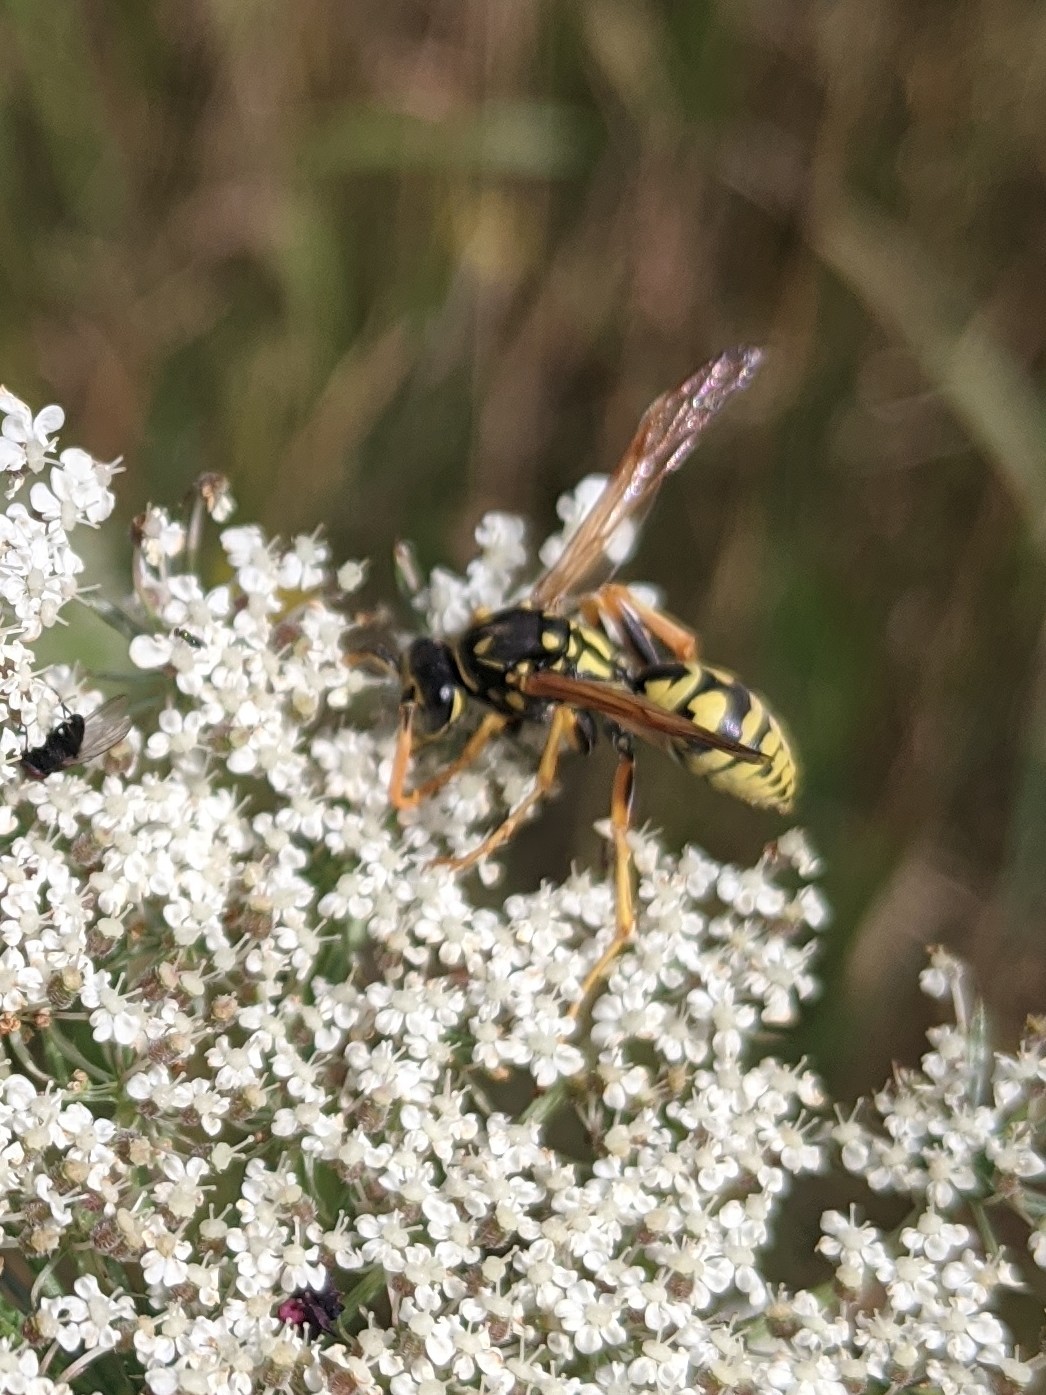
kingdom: Animalia
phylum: Arthropoda
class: Insecta
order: Hymenoptera
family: Eumenidae
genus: Polistes
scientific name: Polistes dominula
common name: Paper wasp
